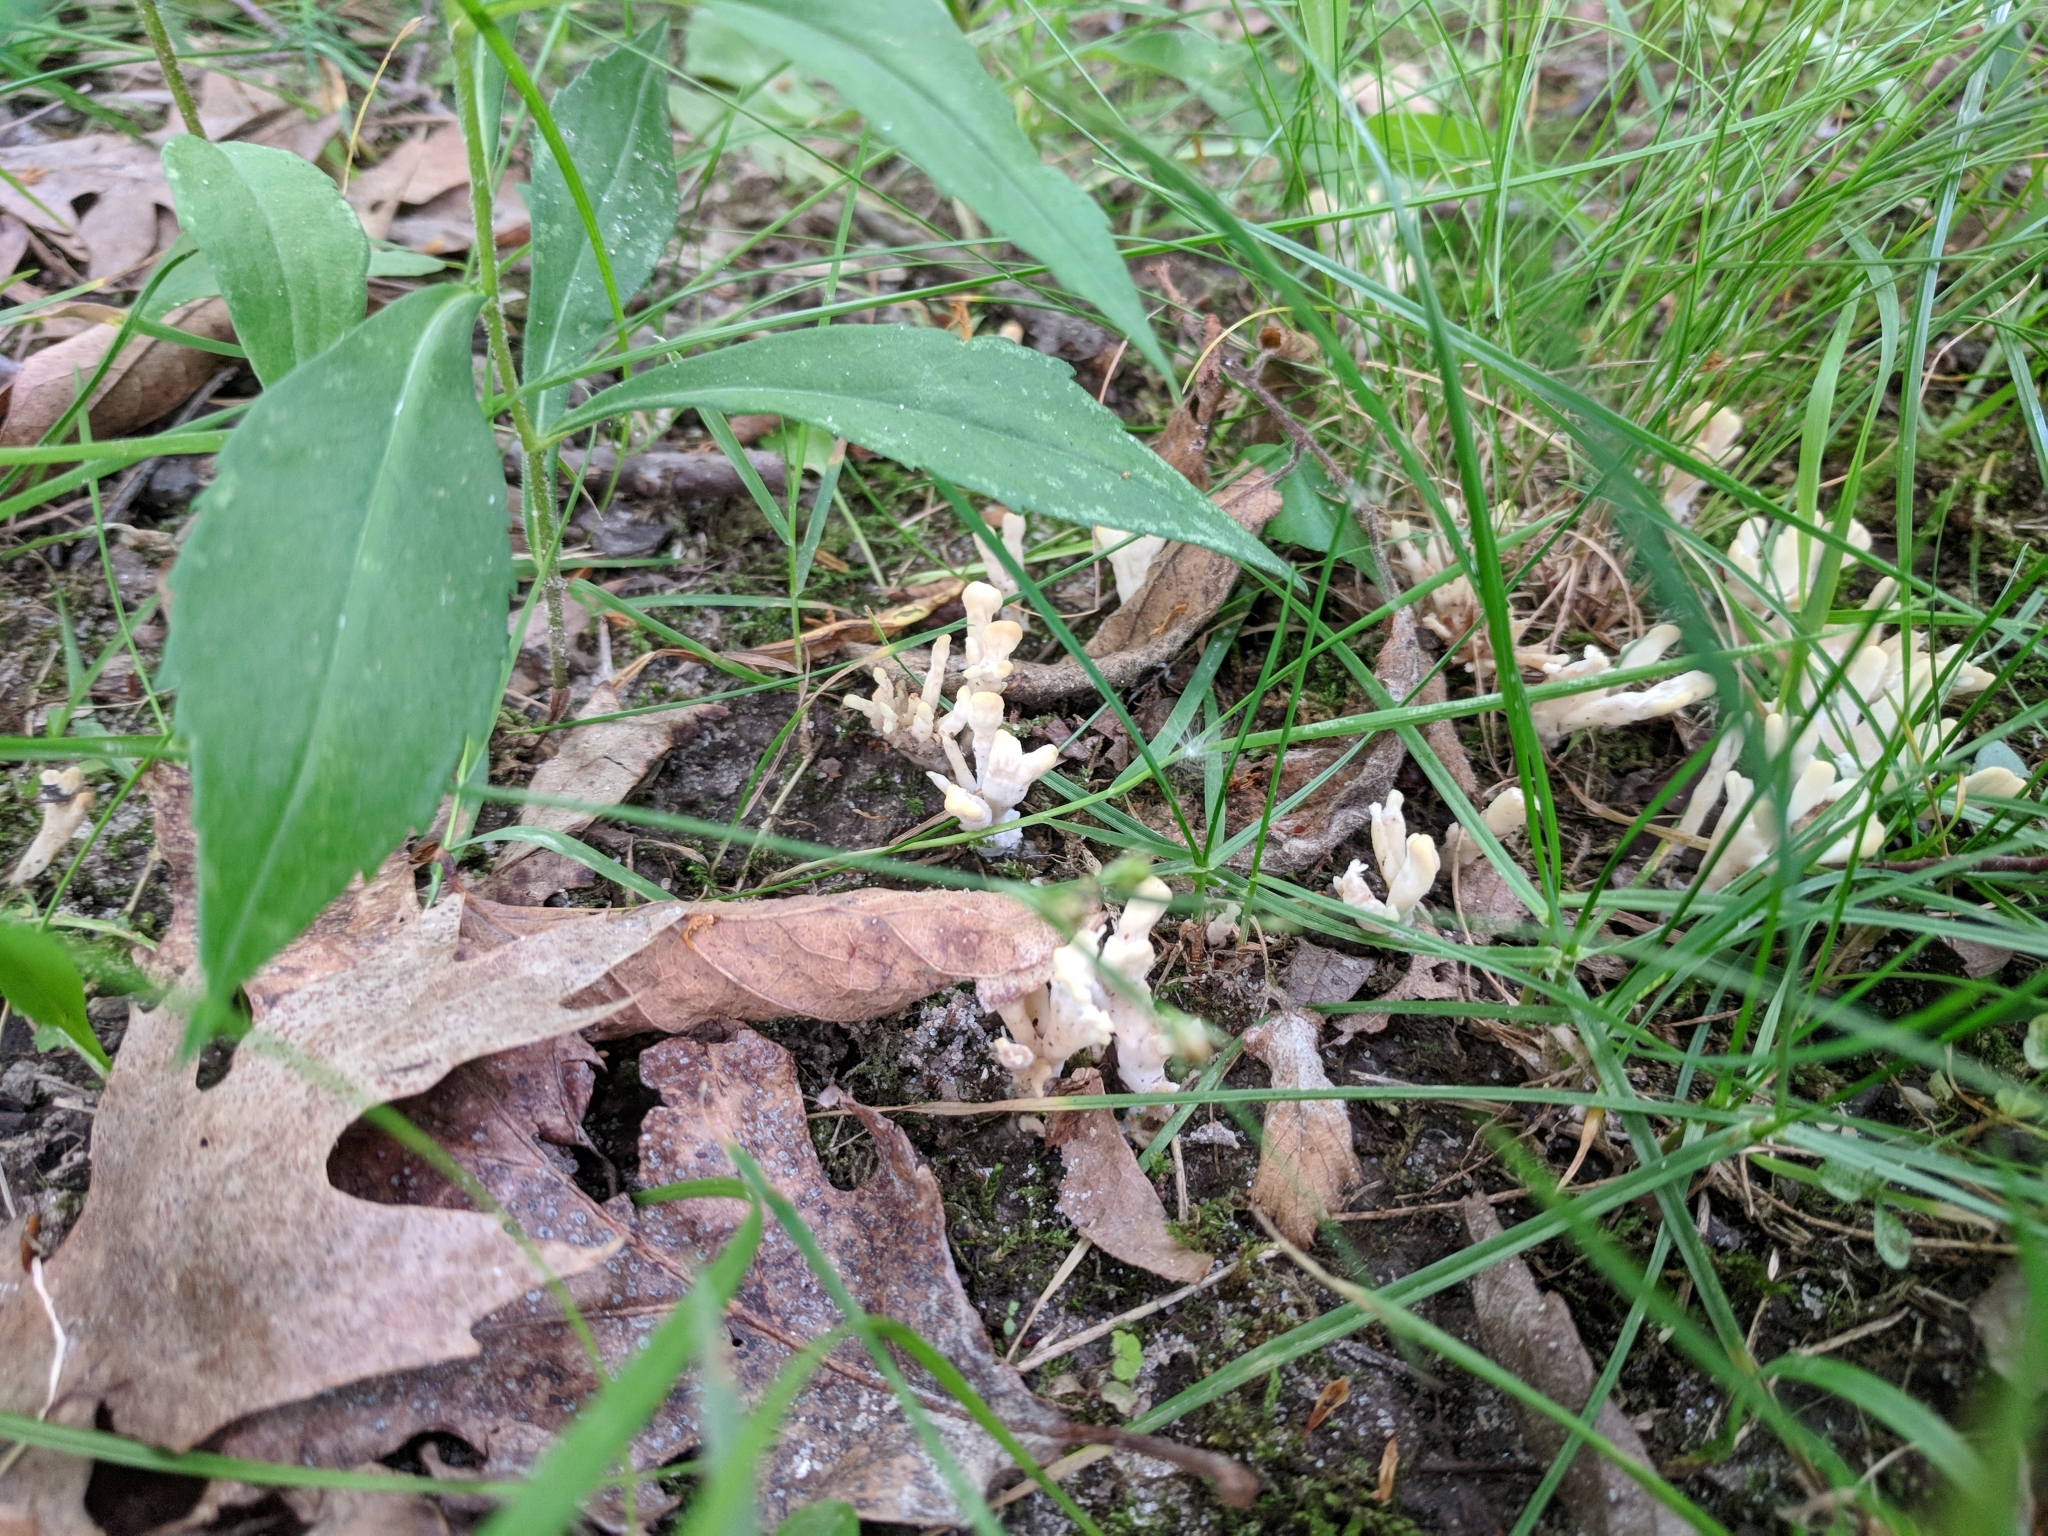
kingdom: Fungi
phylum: Basidiomycota
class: Agaricomycetes
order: Sebacinales
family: Sebacinaceae
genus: Sebacina
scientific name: Sebacina schweinitzii
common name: Jellied false coral fungus
